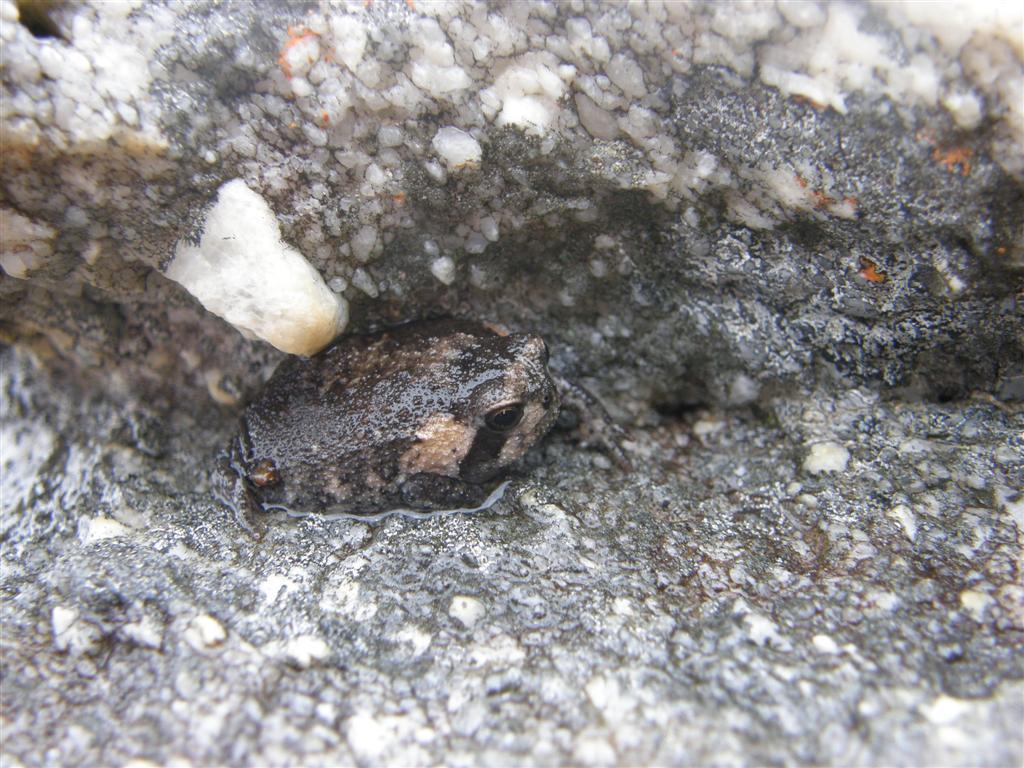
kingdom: Animalia
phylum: Chordata
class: Amphibia
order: Anura
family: Brevicipitidae
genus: Breviceps
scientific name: Breviceps montanus
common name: Mountain rain frog
